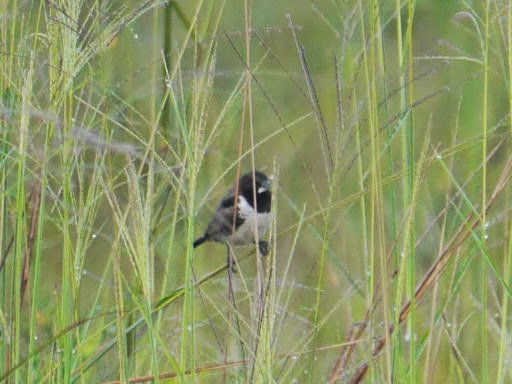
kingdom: Animalia
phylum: Chordata
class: Aves
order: Passeriformes
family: Estrildidae
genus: Lonchura
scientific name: Lonchura cucullata
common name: Bronze mannikin
